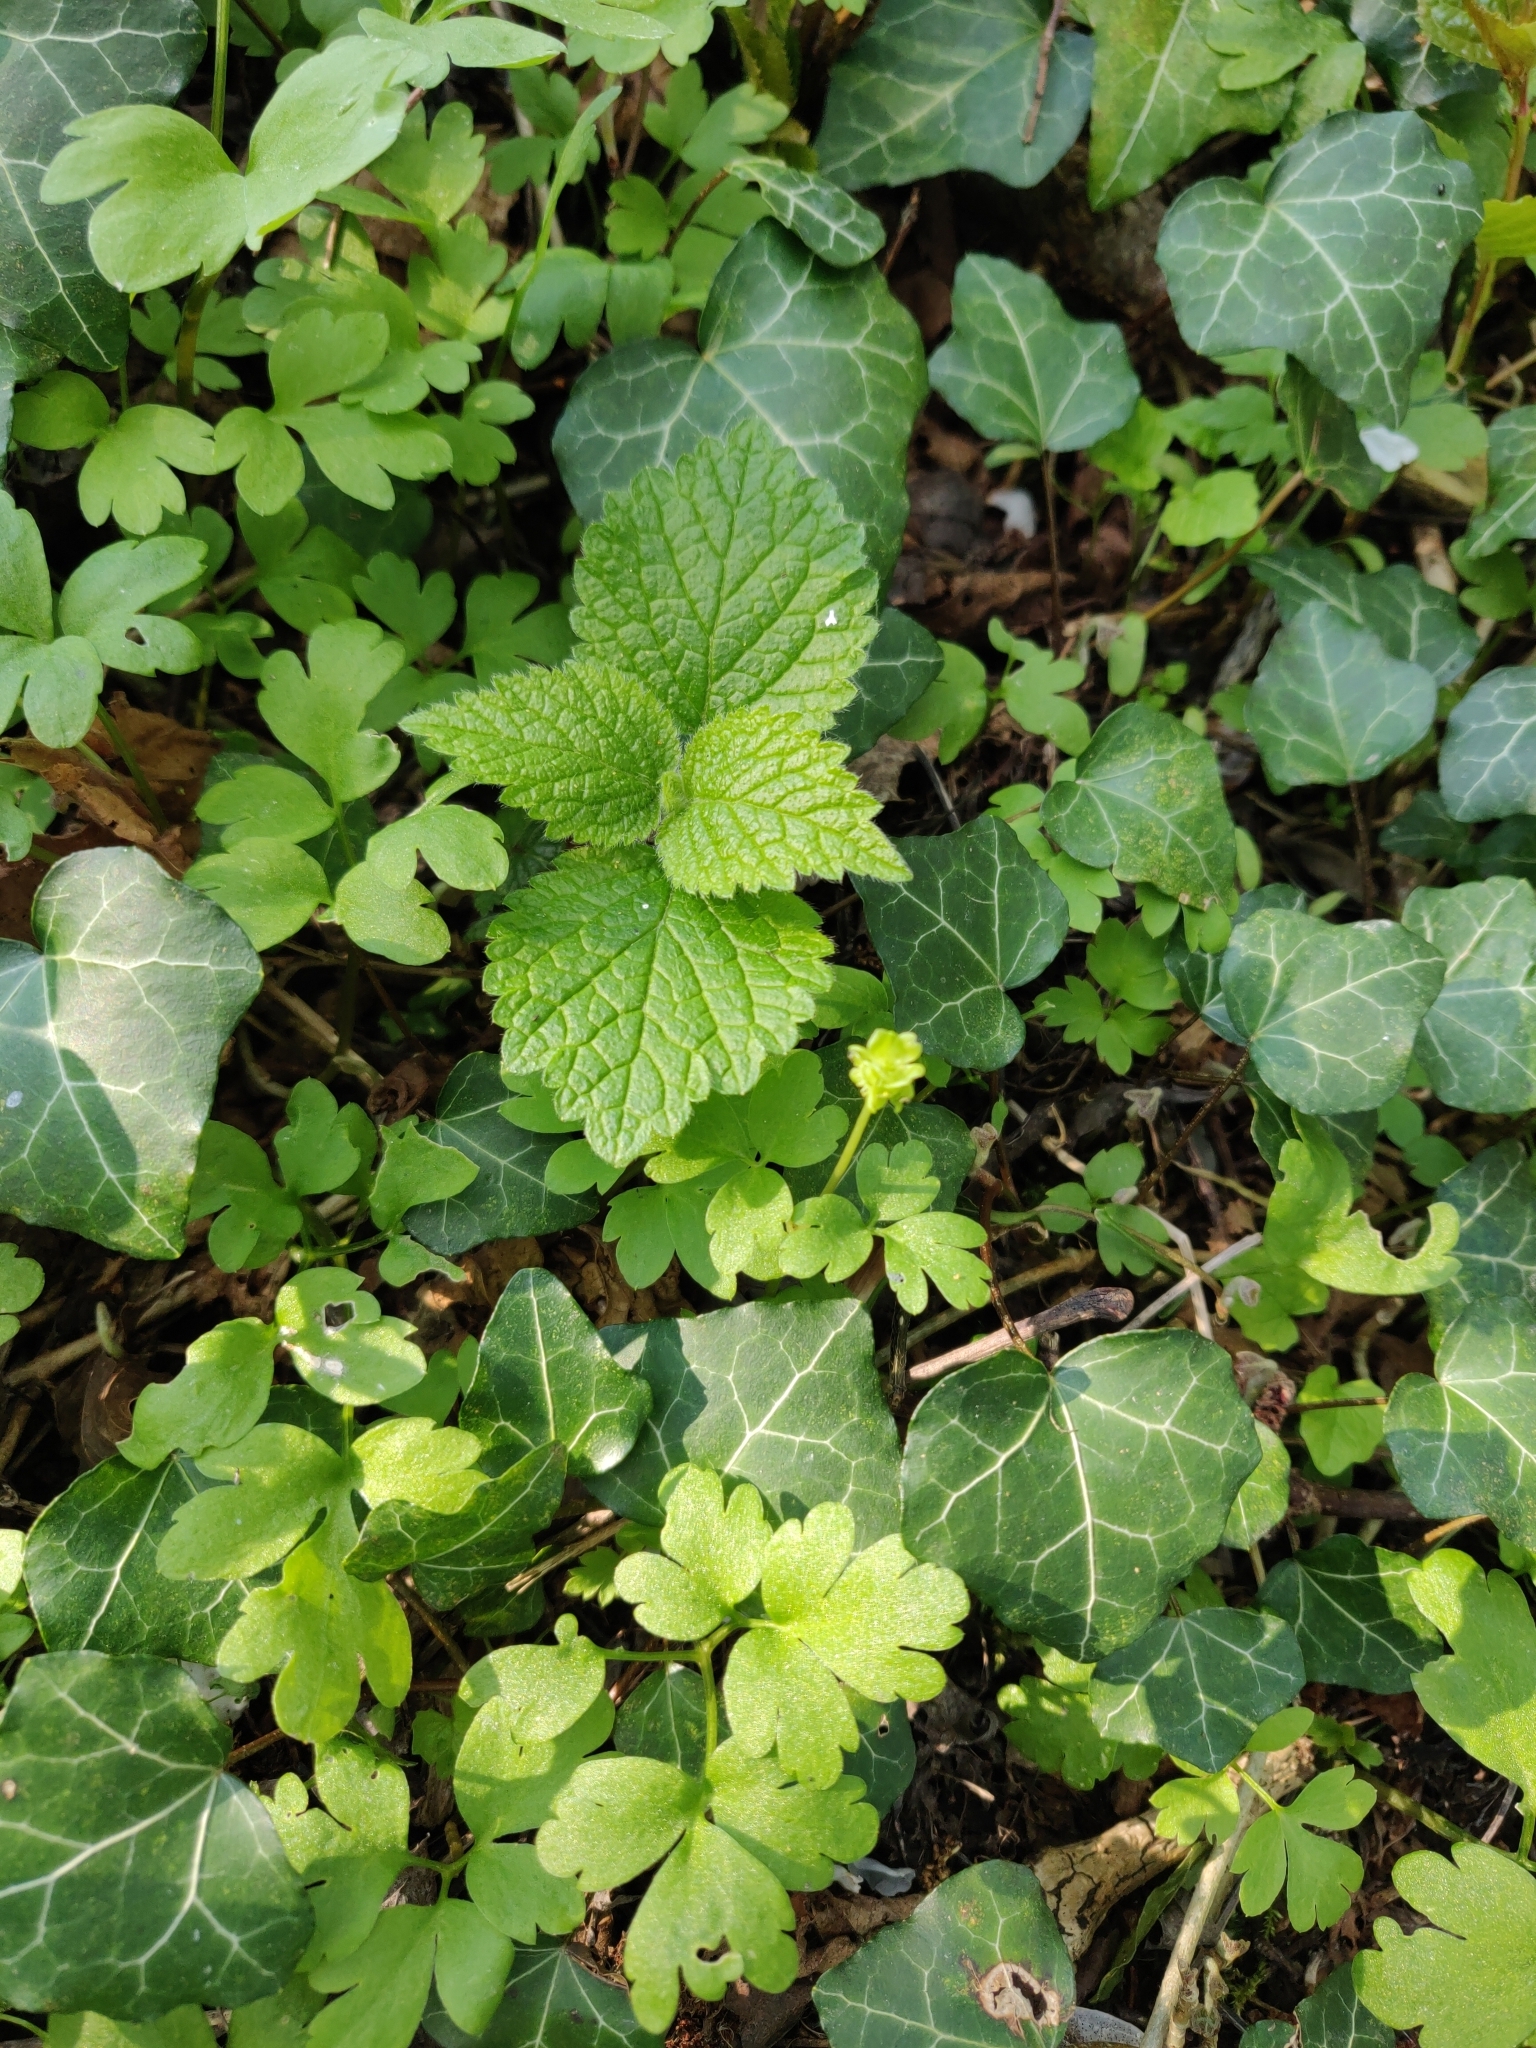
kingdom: Plantae
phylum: Tracheophyta
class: Magnoliopsida
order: Dipsacales
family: Viburnaceae
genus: Adoxa
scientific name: Adoxa moschatellina
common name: Moschatel
